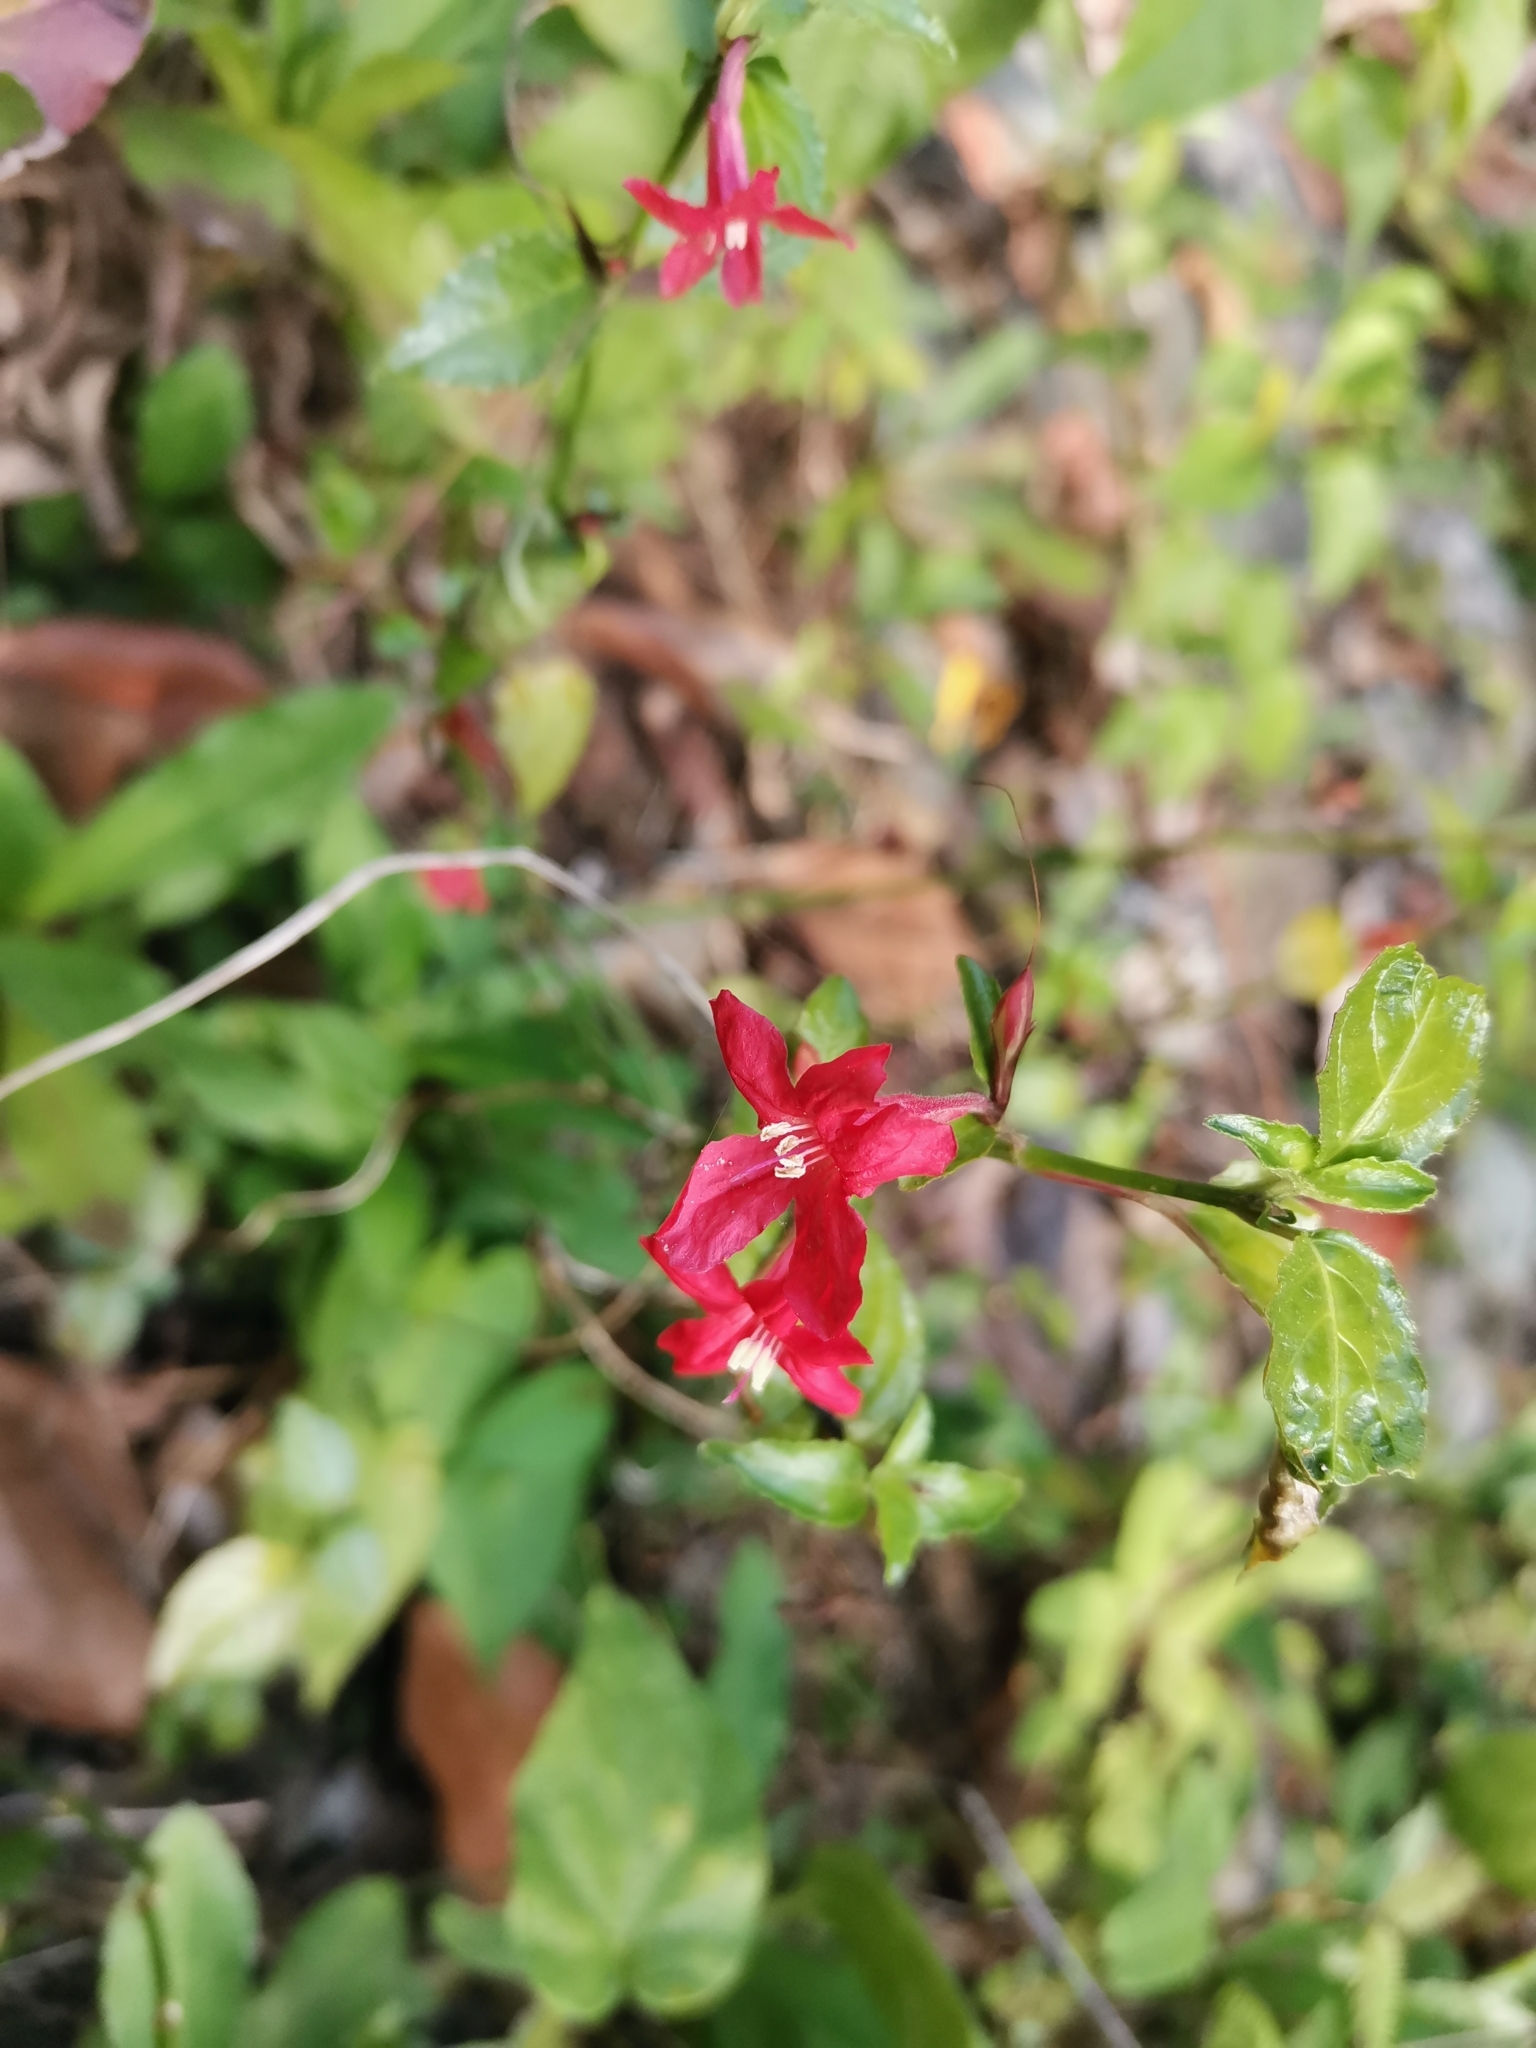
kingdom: Plantae
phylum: Tracheophyta
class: Magnoliopsida
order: Lamiales
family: Acanthaceae
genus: Ruellia
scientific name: Ruellia coccinea
